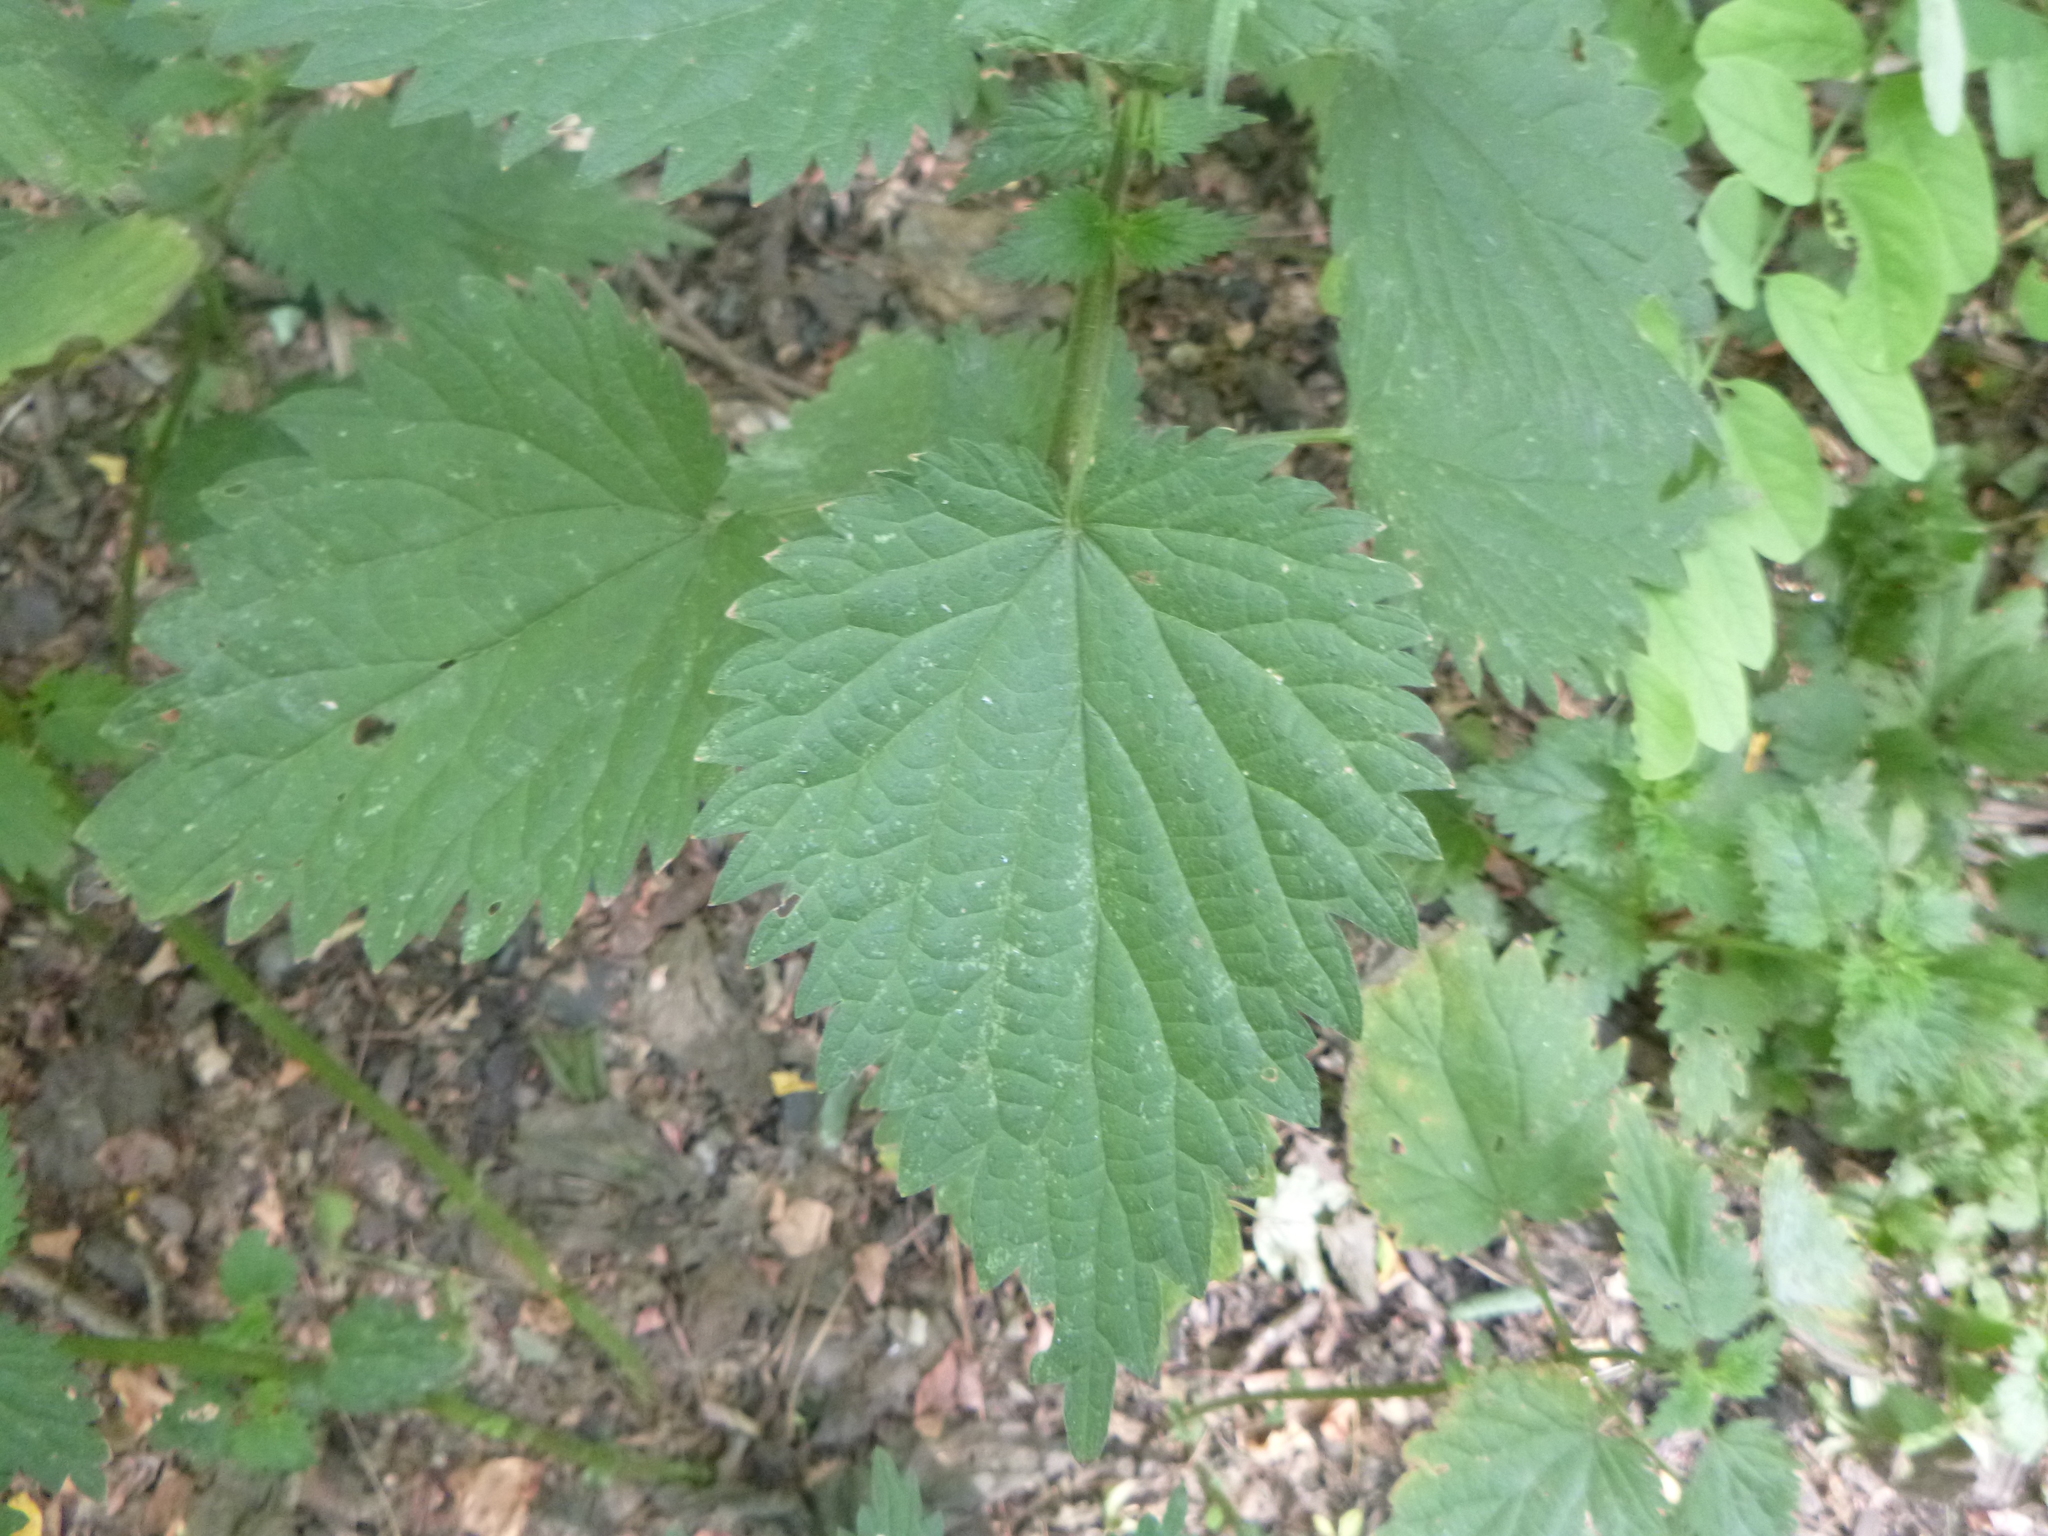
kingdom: Plantae
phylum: Tracheophyta
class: Magnoliopsida
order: Rosales
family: Urticaceae
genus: Urtica
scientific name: Urtica dioica
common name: Common nettle
